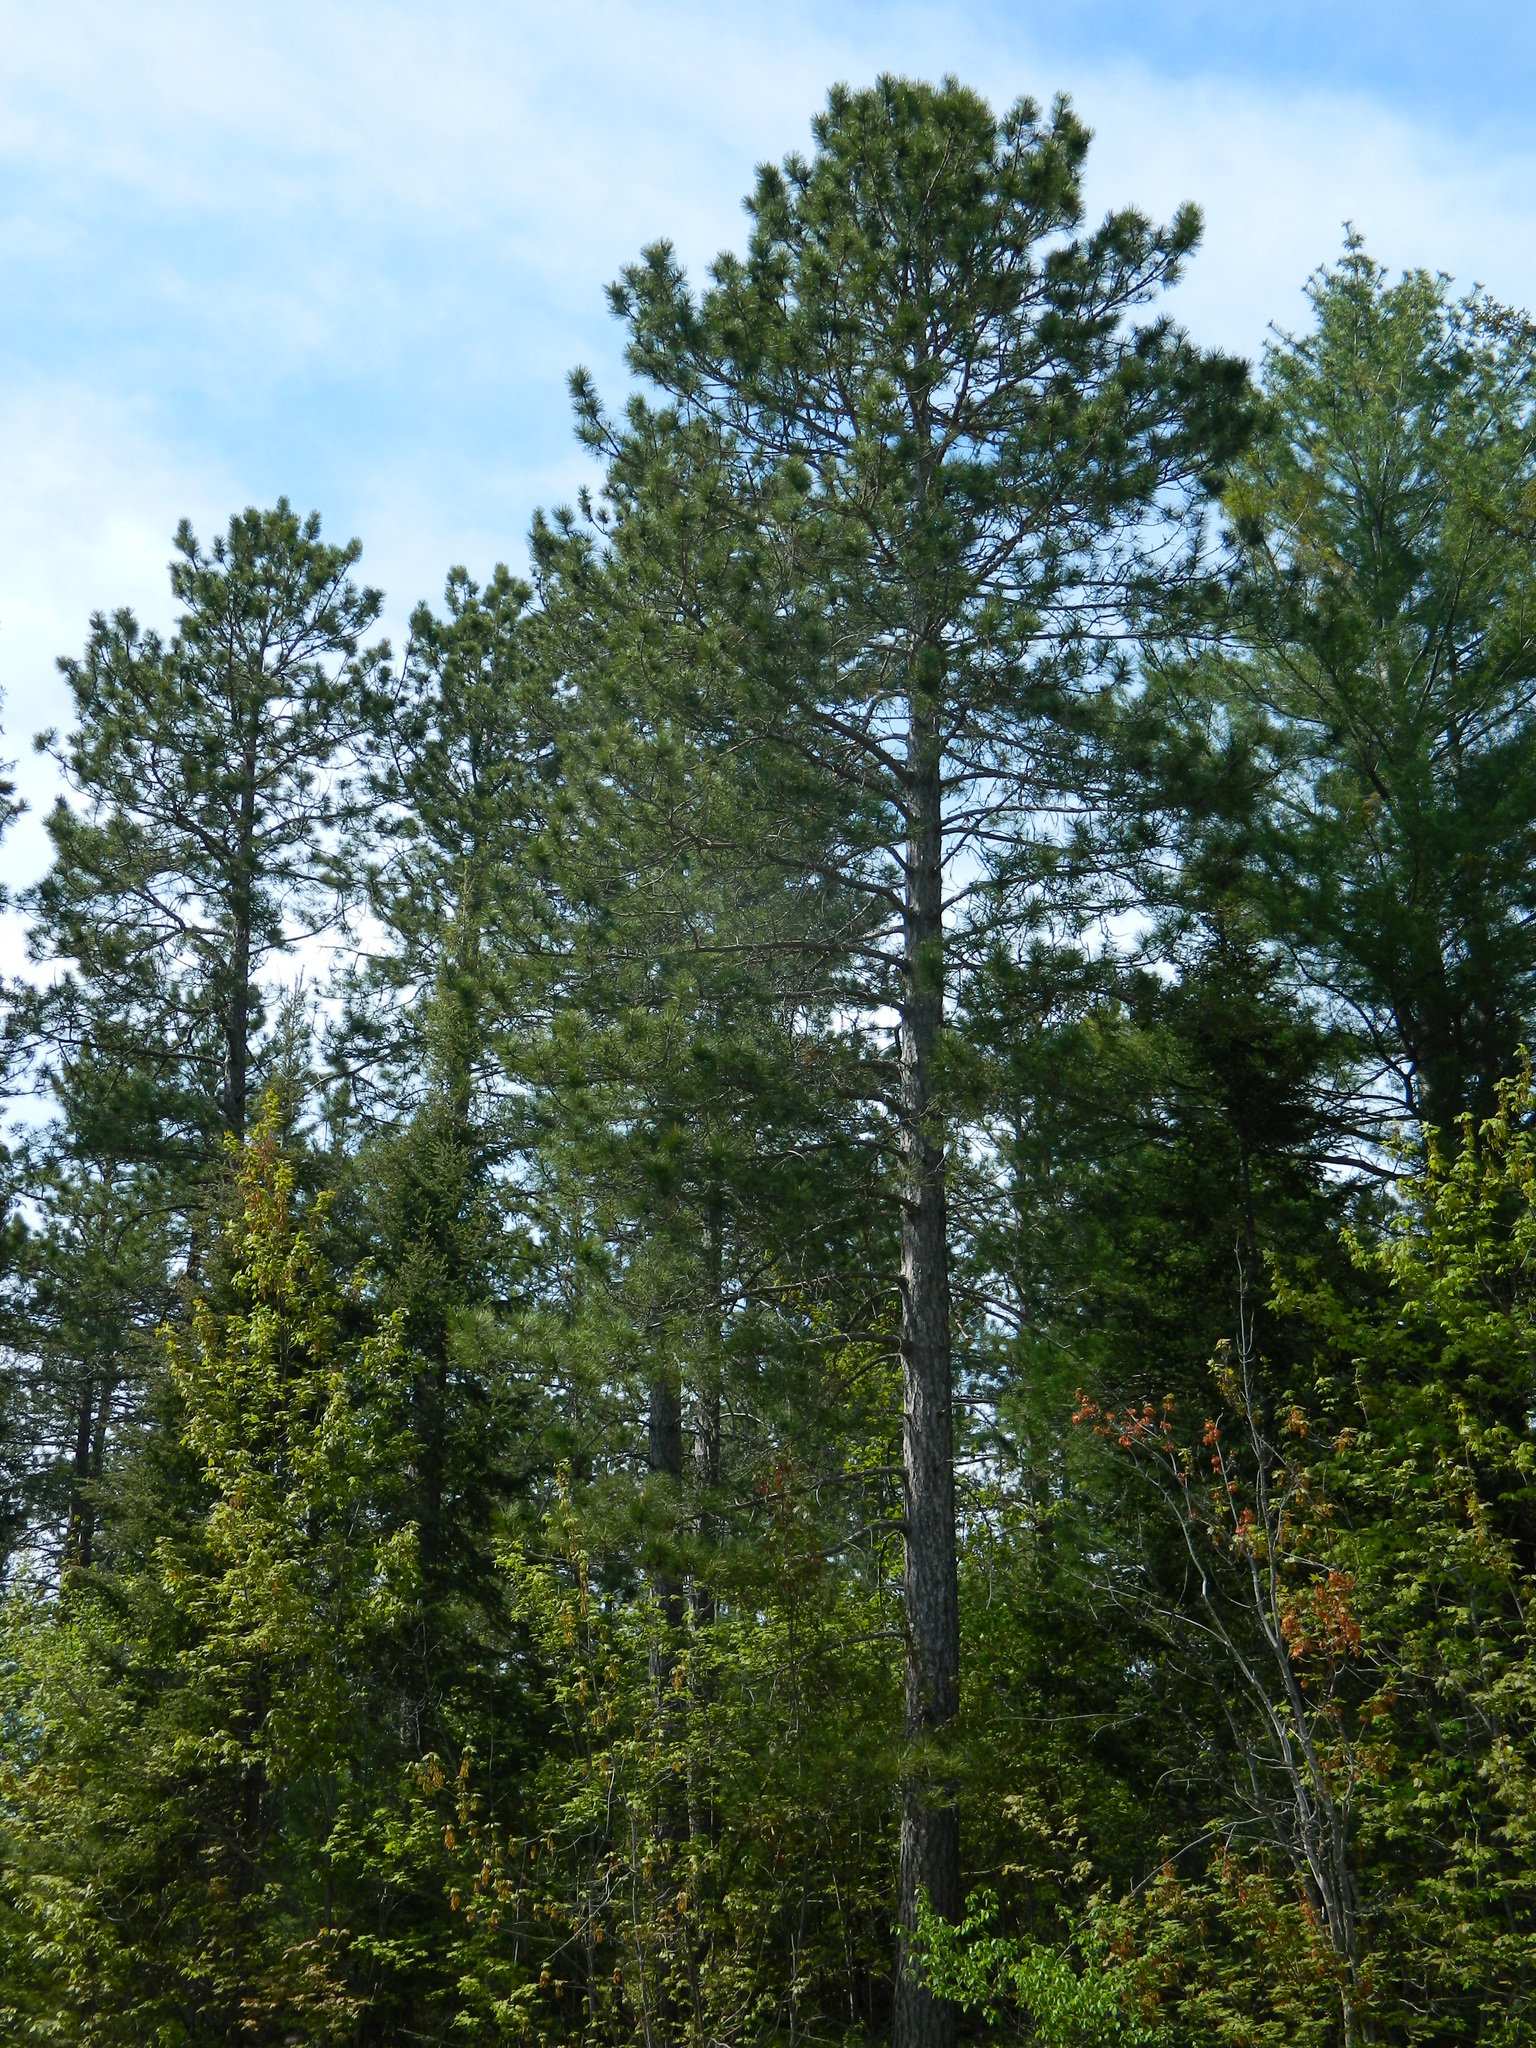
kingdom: Plantae
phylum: Tracheophyta
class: Pinopsida
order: Pinales
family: Pinaceae
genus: Pinus
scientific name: Pinus resinosa
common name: Norway pine
